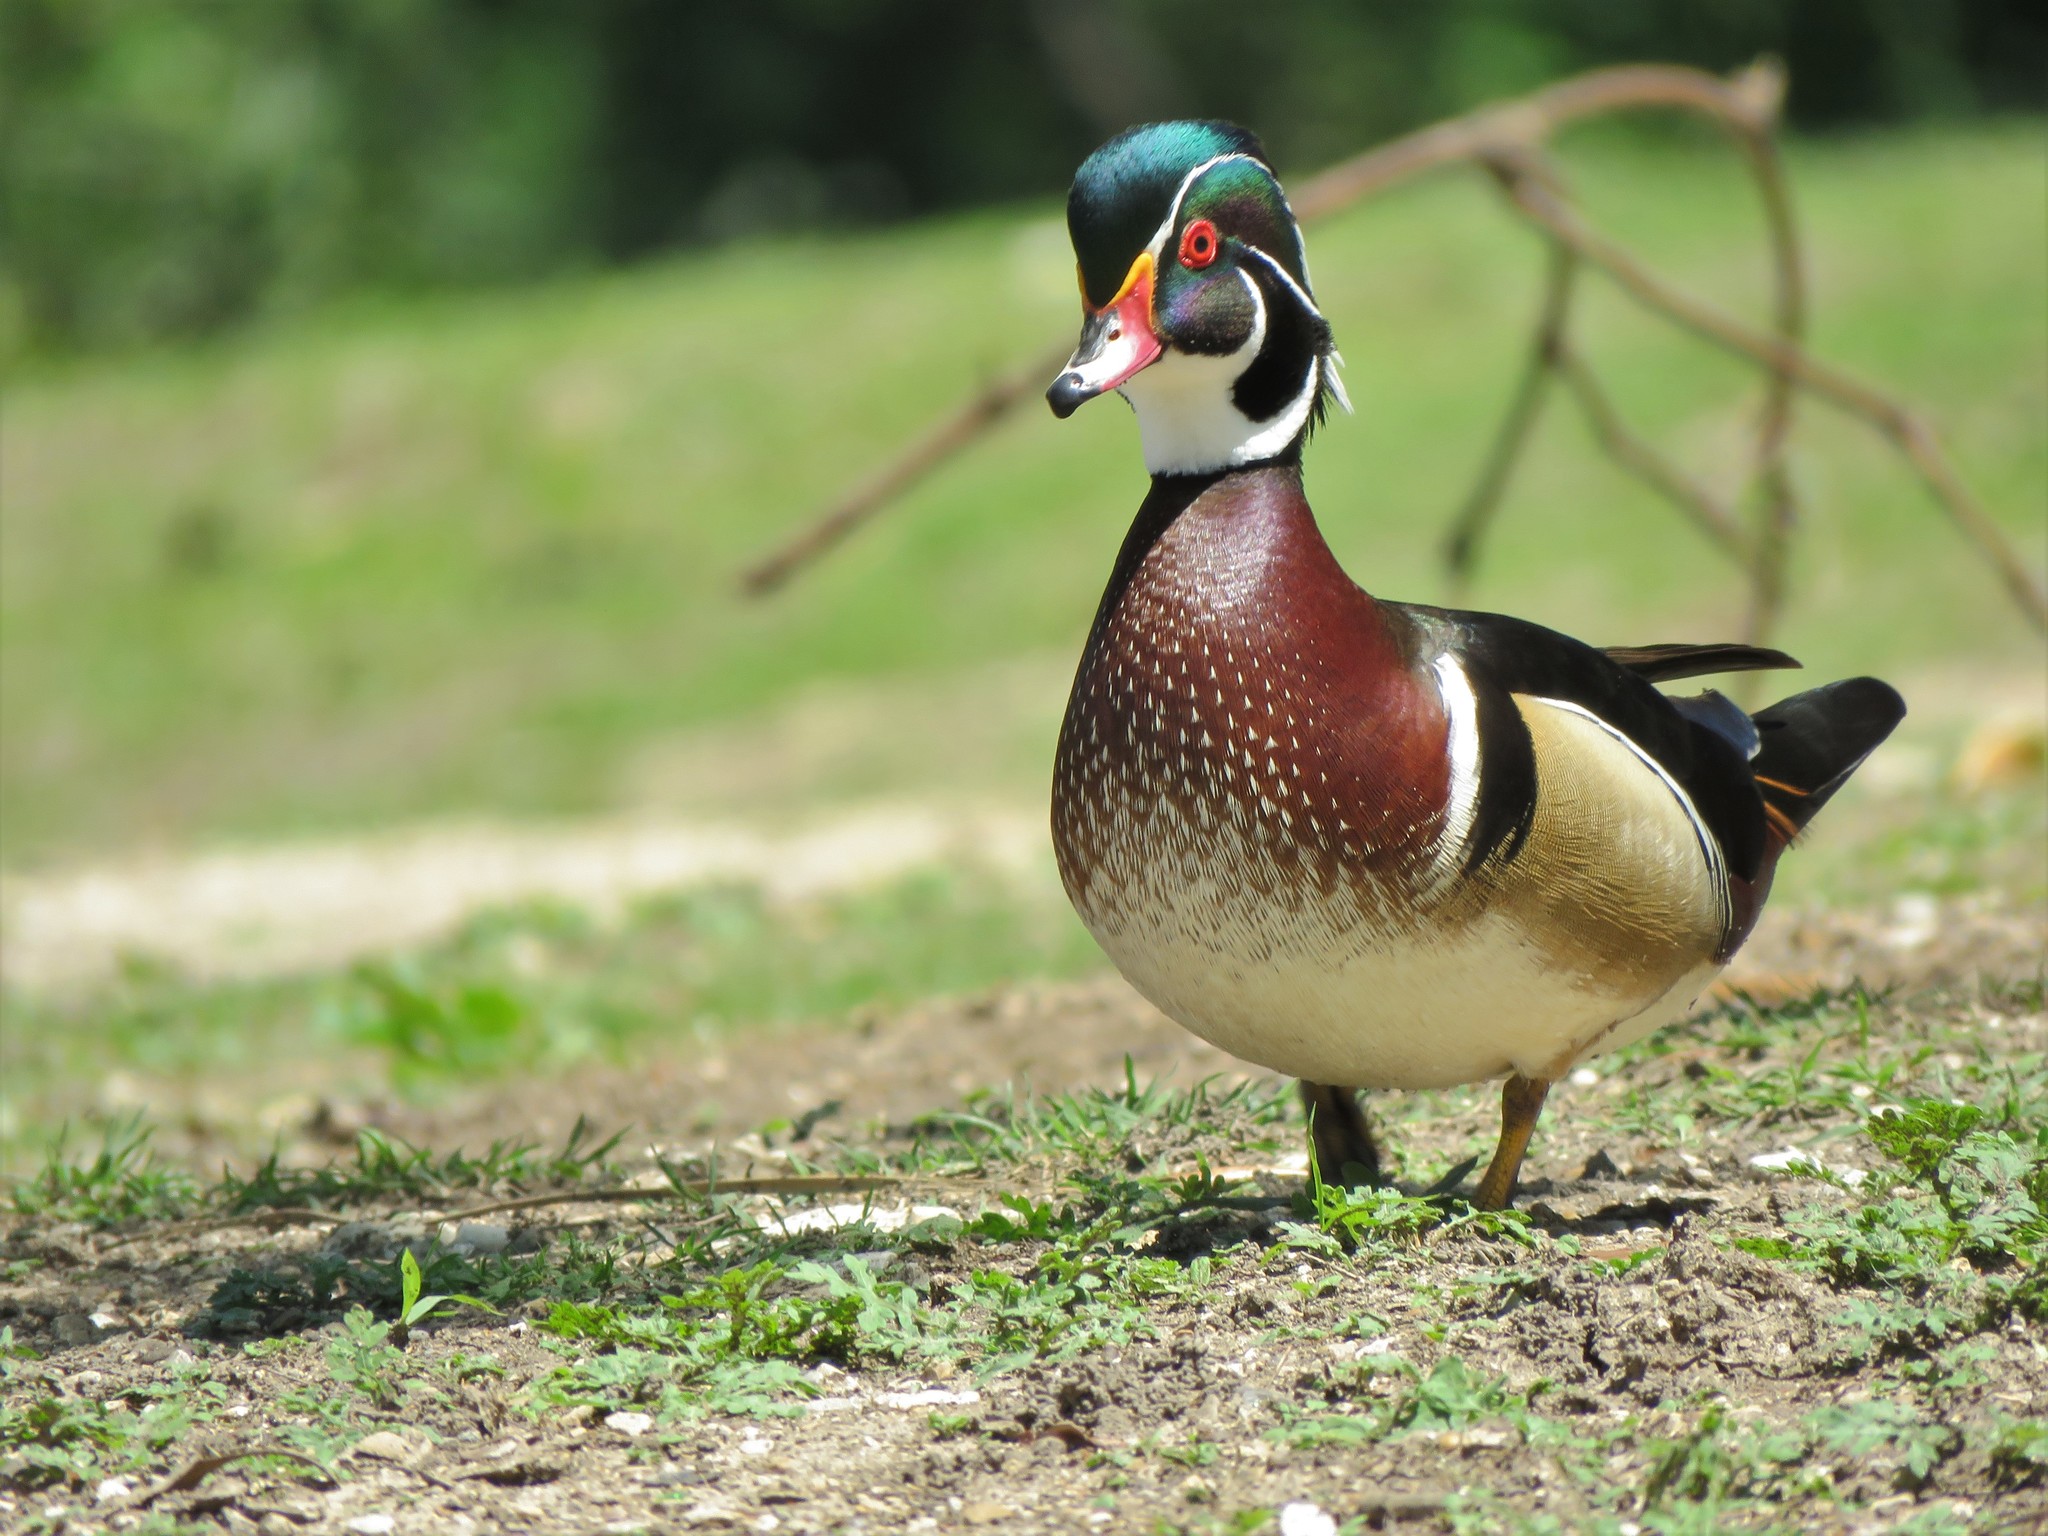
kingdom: Animalia
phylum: Chordata
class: Aves
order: Anseriformes
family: Anatidae
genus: Aix
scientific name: Aix sponsa
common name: Wood duck
